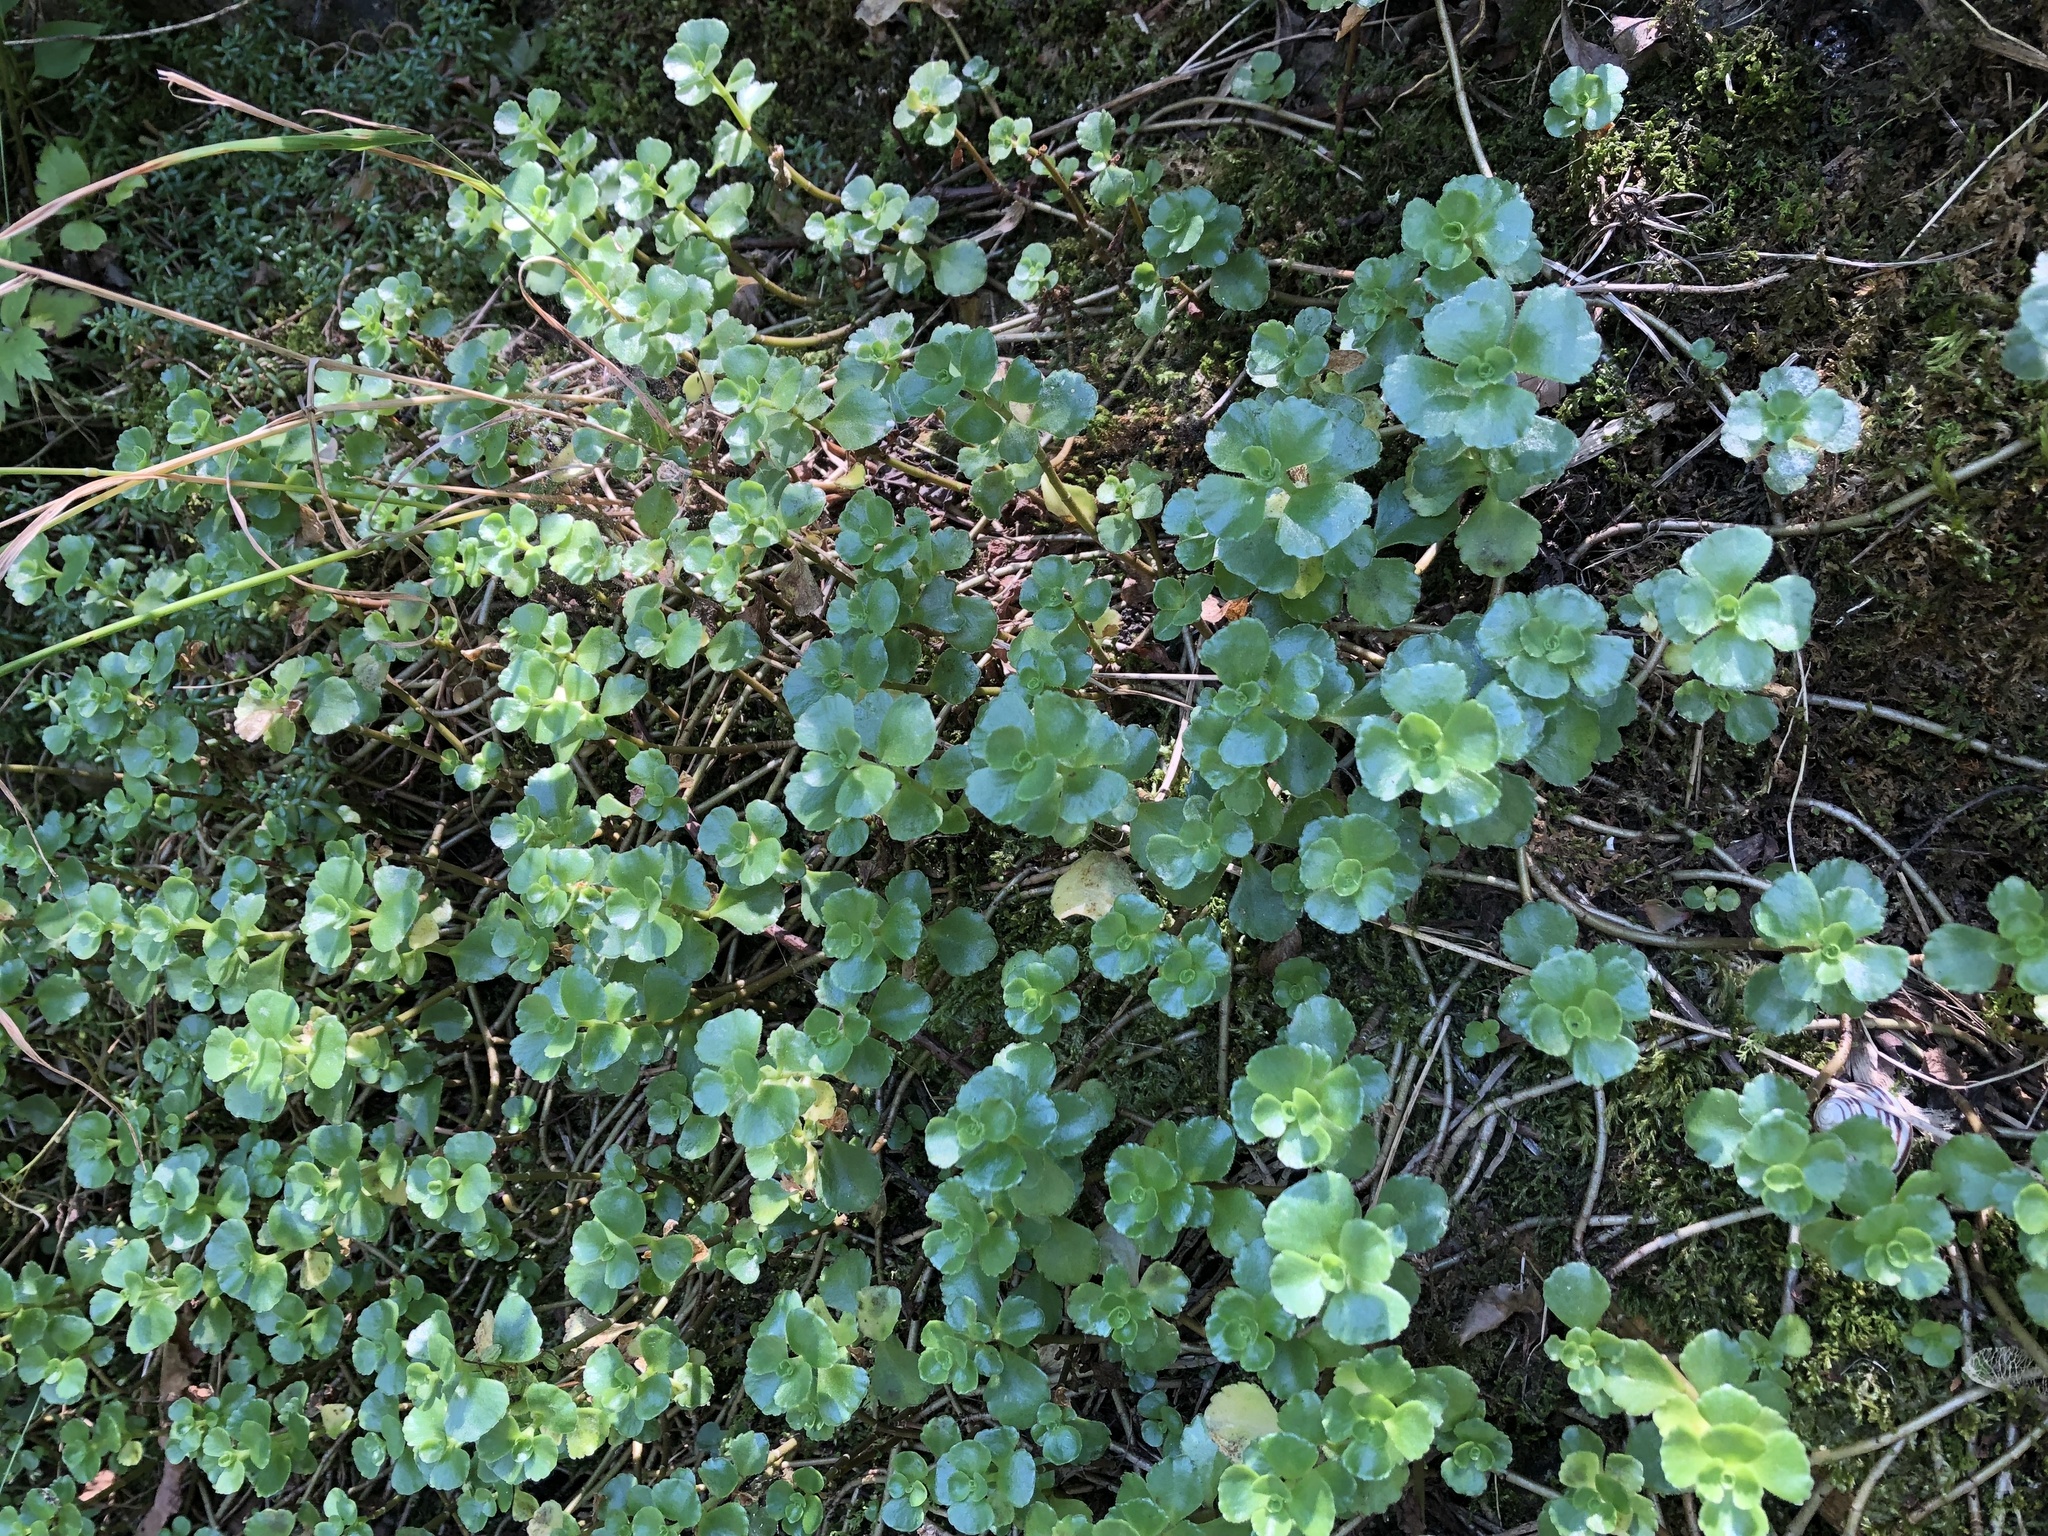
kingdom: Plantae
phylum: Tracheophyta
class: Magnoliopsida
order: Saxifragales
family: Crassulaceae
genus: Phedimus
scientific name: Phedimus spurius
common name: Caucasian stonecrop
